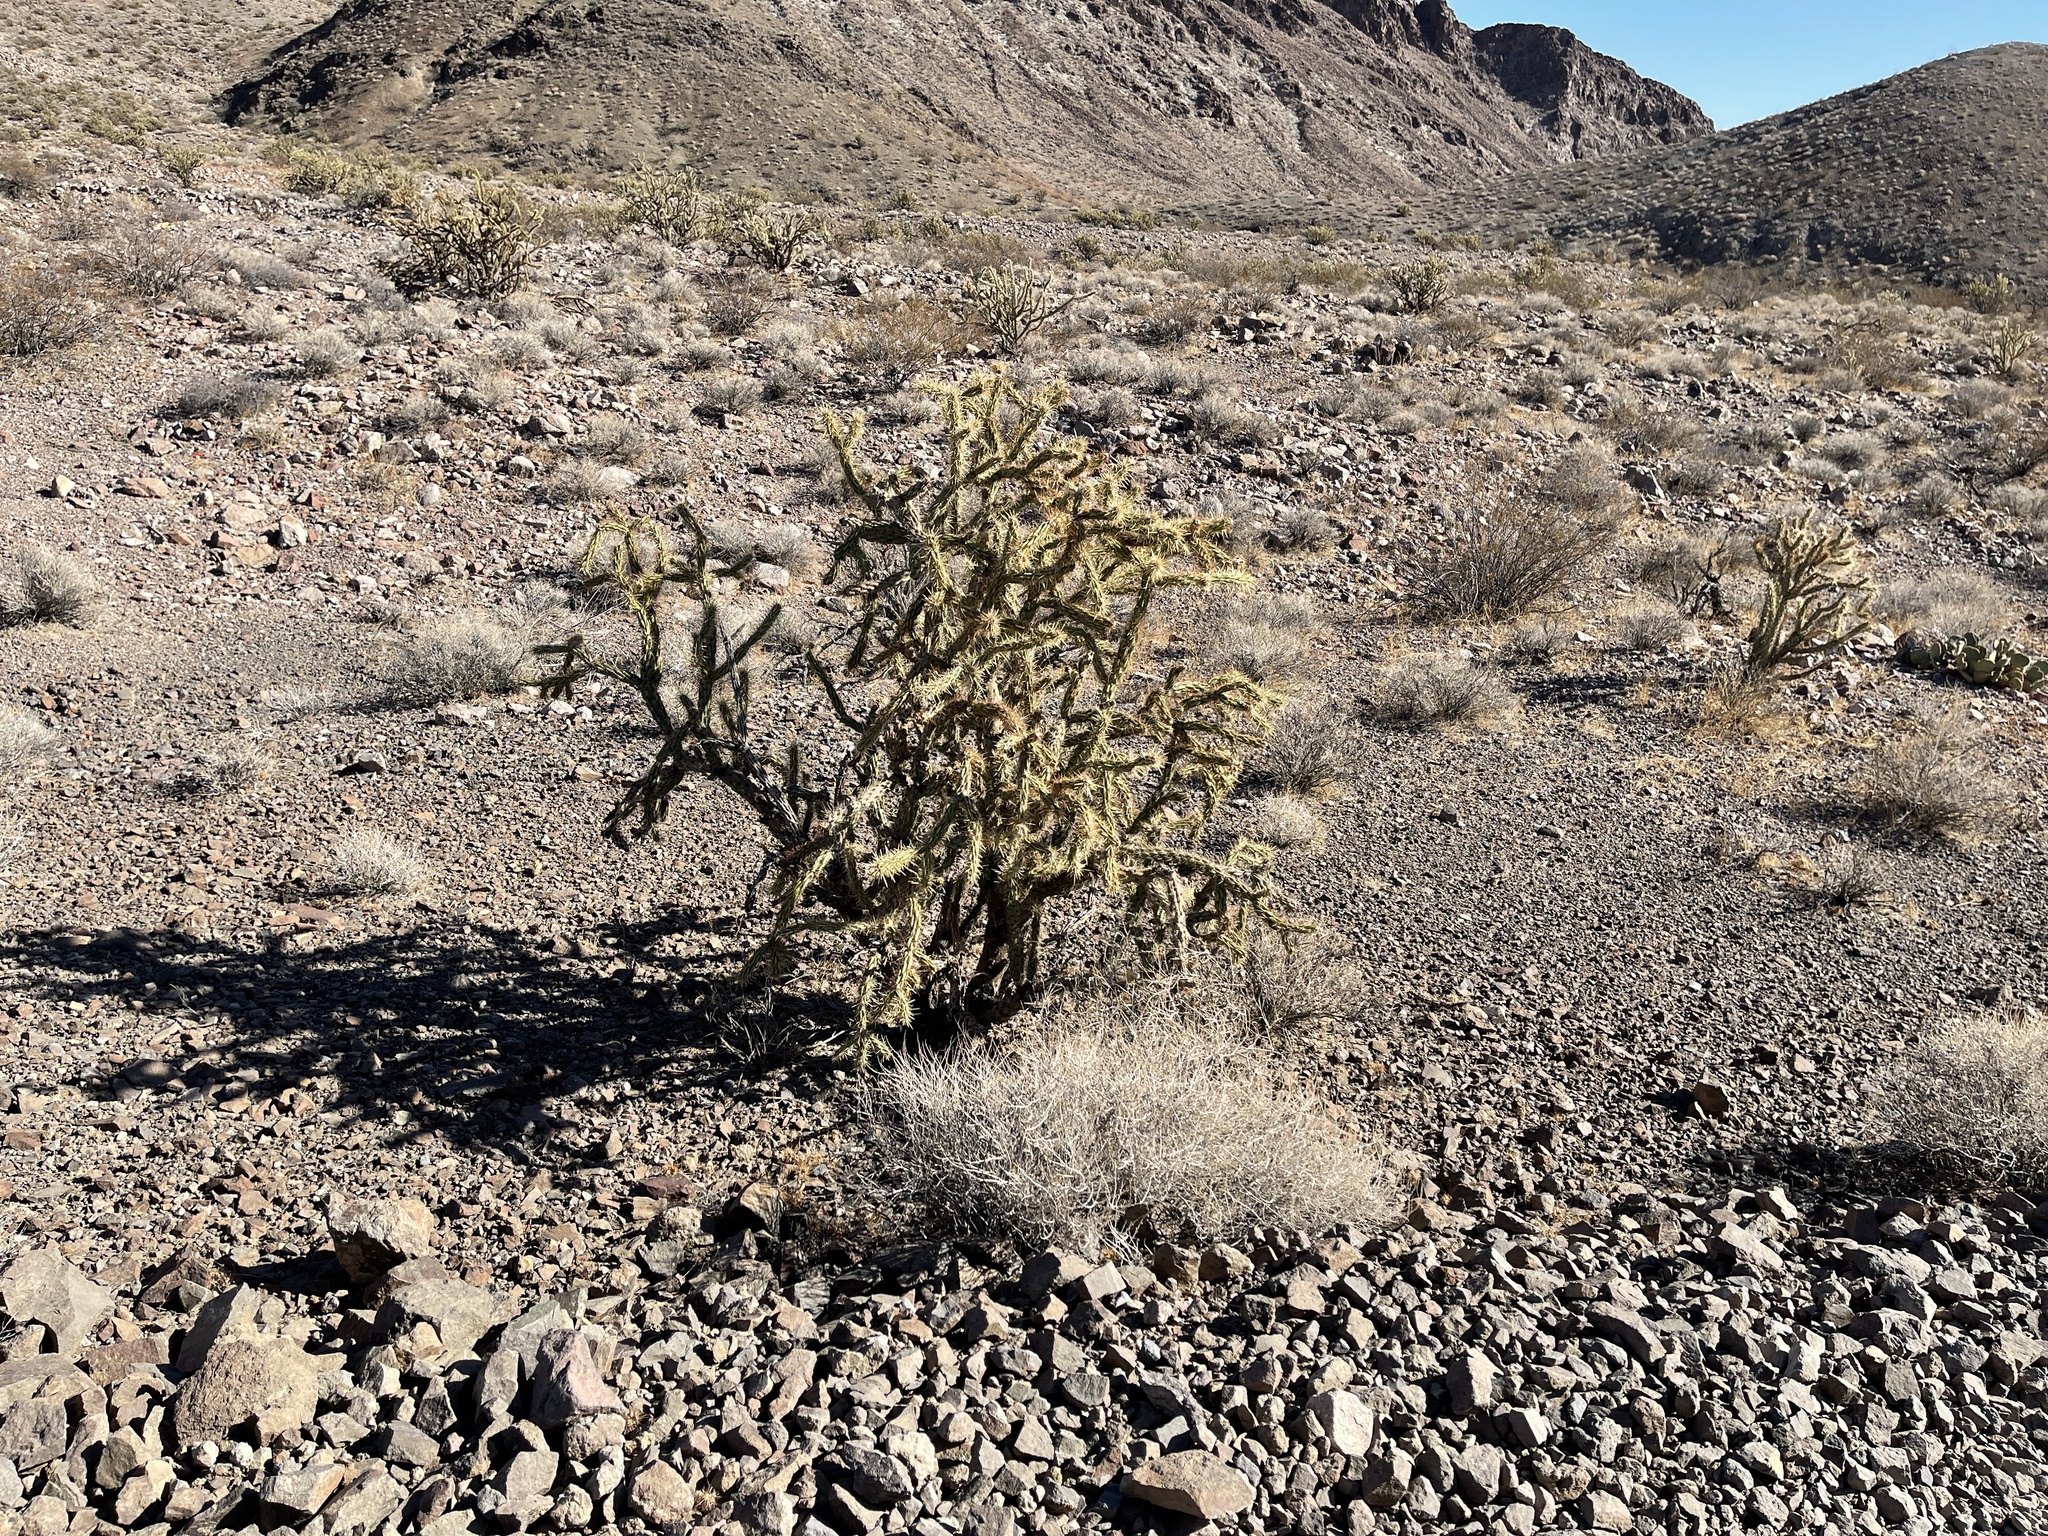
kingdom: Plantae
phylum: Tracheophyta
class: Magnoliopsida
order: Caryophyllales
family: Cactaceae
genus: Cylindropuntia
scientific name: Cylindropuntia acanthocarpa
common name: Buckhorn cholla
